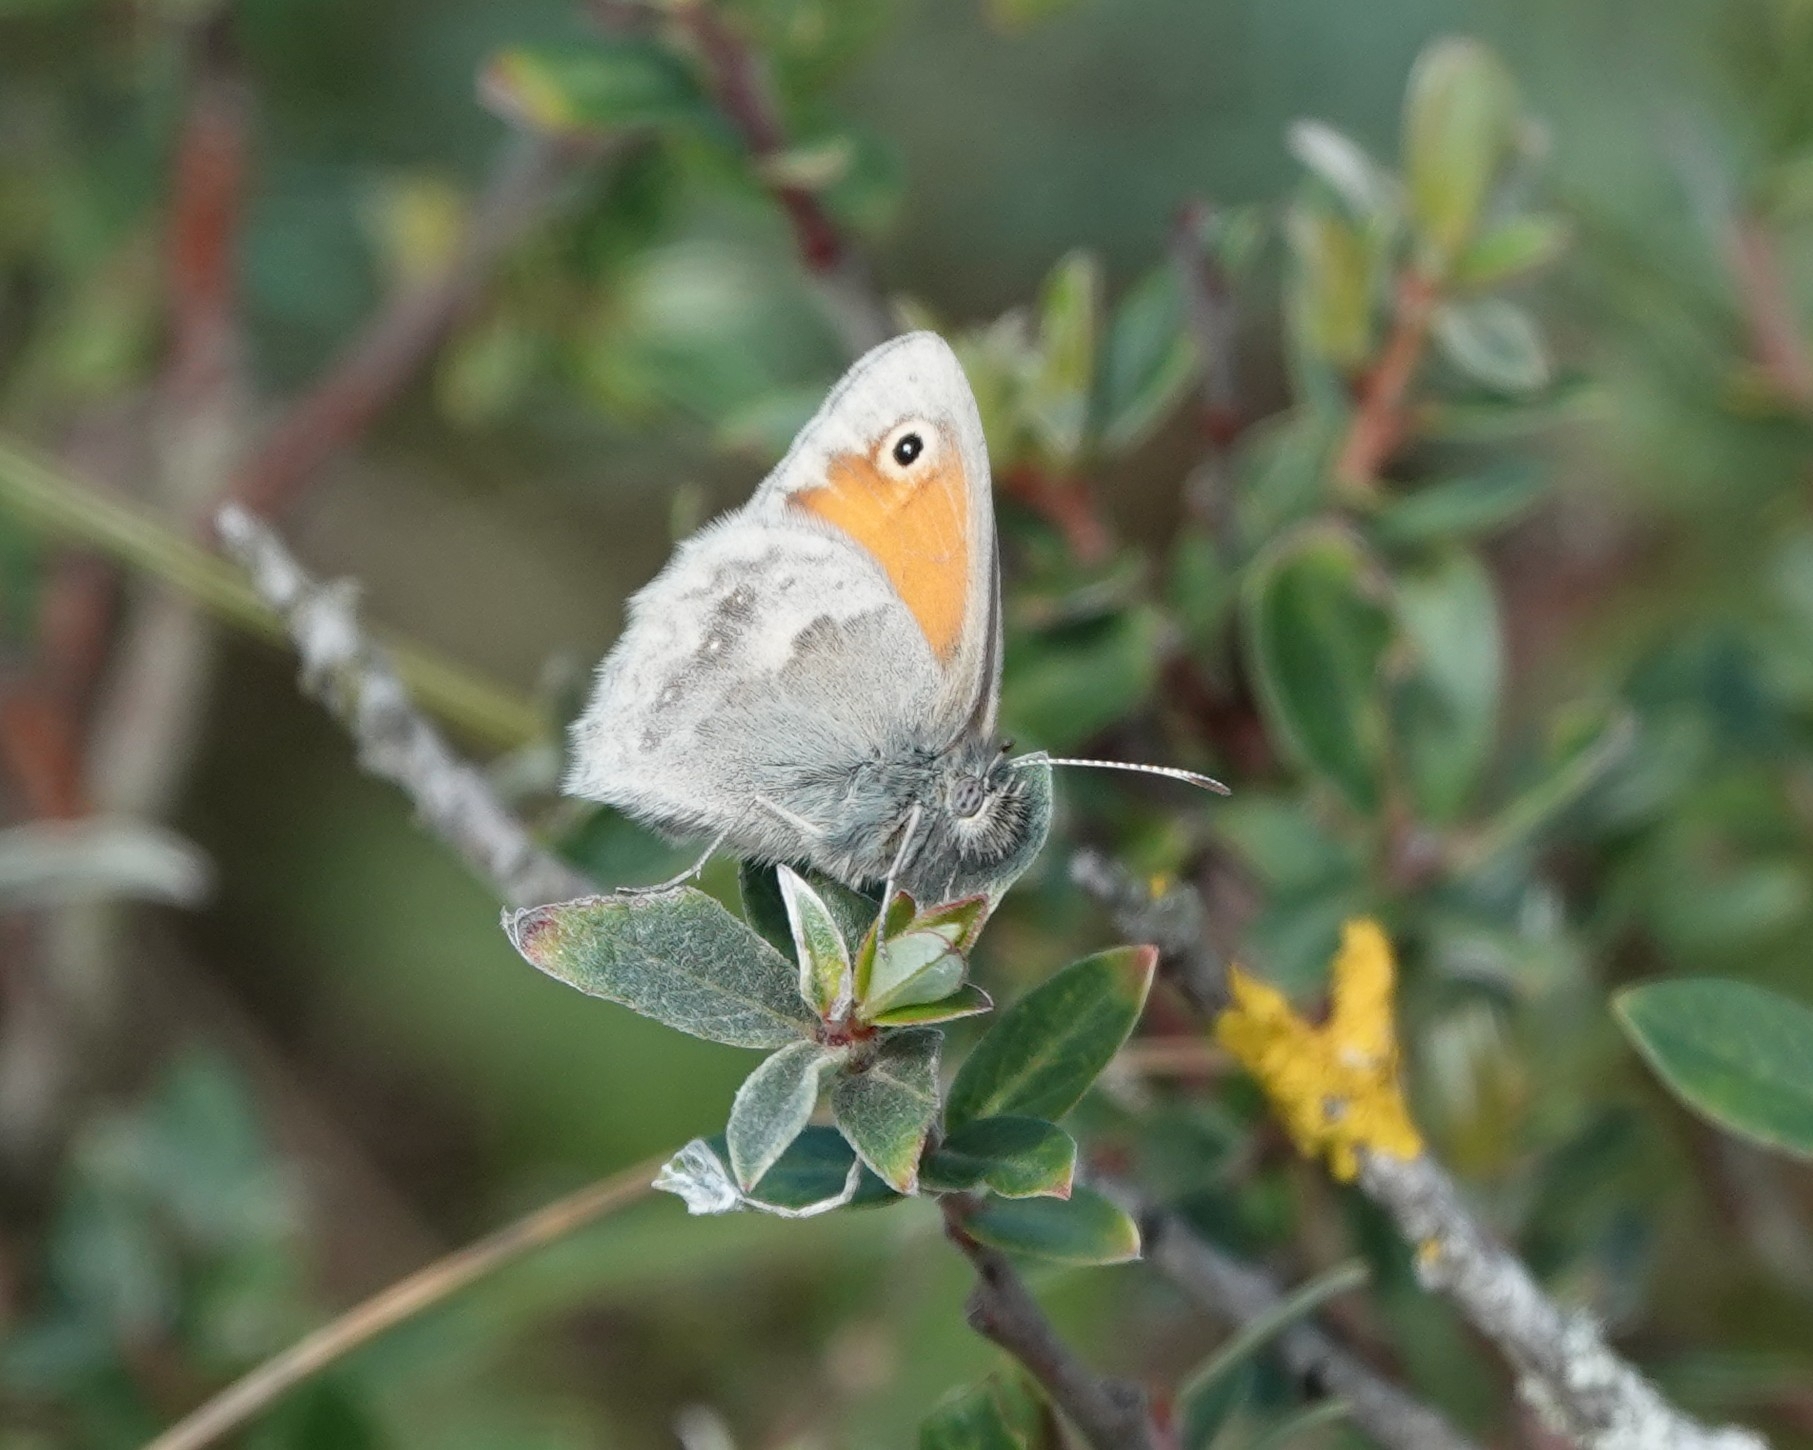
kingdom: Animalia
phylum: Arthropoda
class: Insecta
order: Lepidoptera
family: Nymphalidae
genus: Coenonympha
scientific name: Coenonympha pamphilus
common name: Small heath
